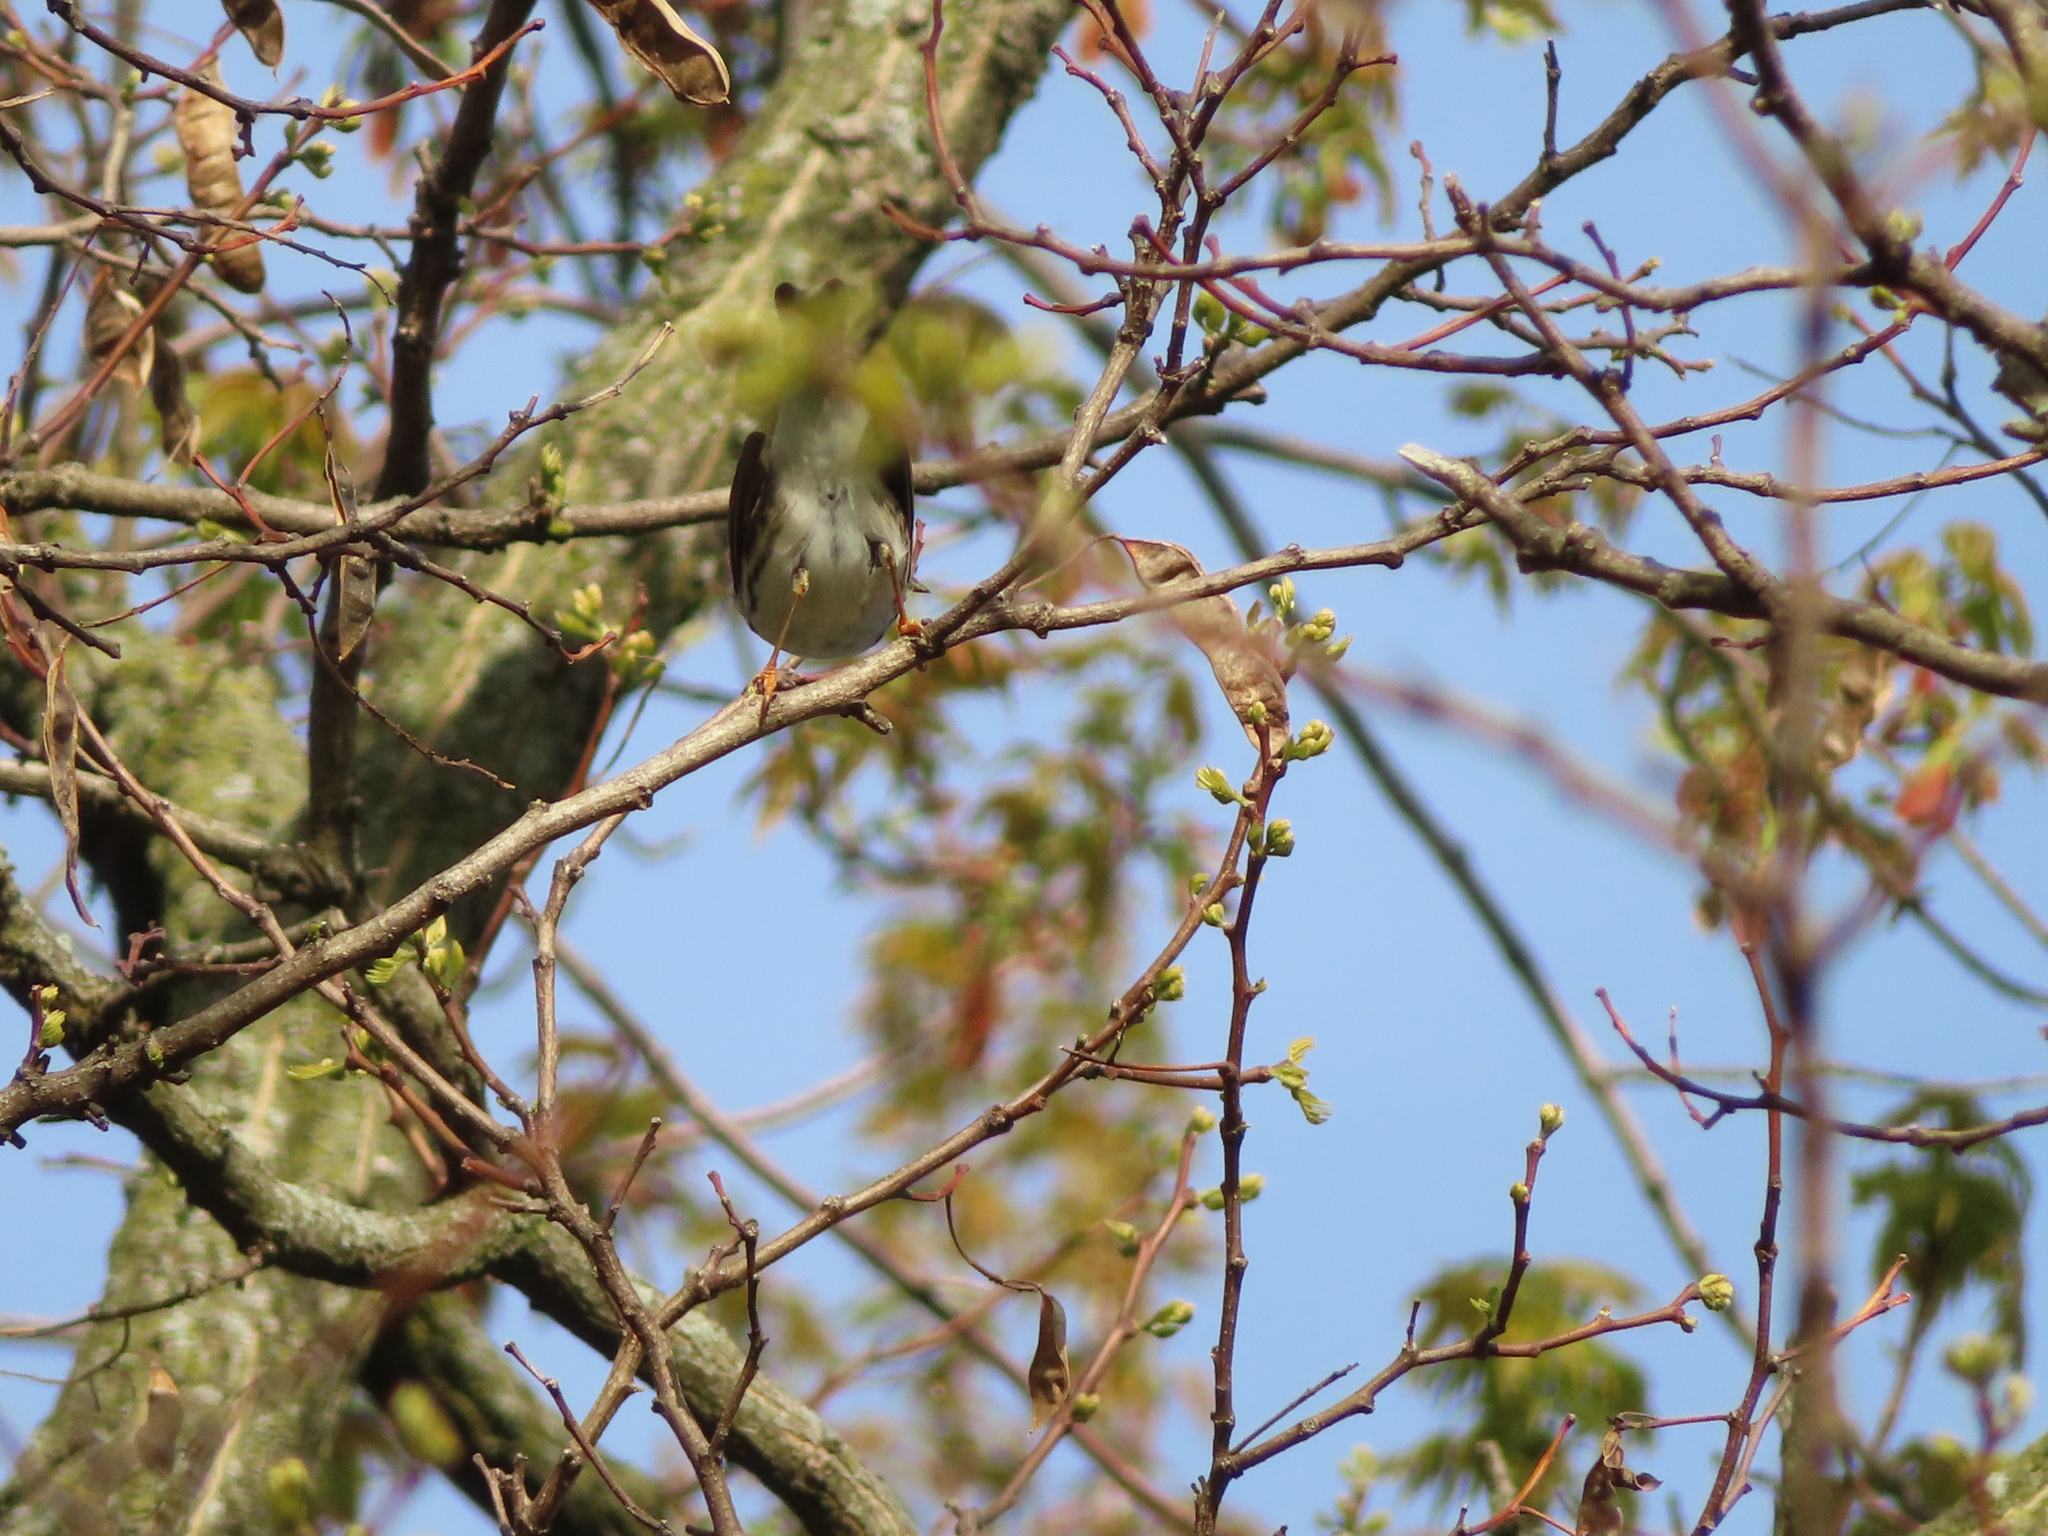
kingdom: Animalia
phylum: Chordata
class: Aves
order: Passeriformes
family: Parulidae
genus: Setophaga
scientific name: Setophaga striata
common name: Blackpoll warbler
